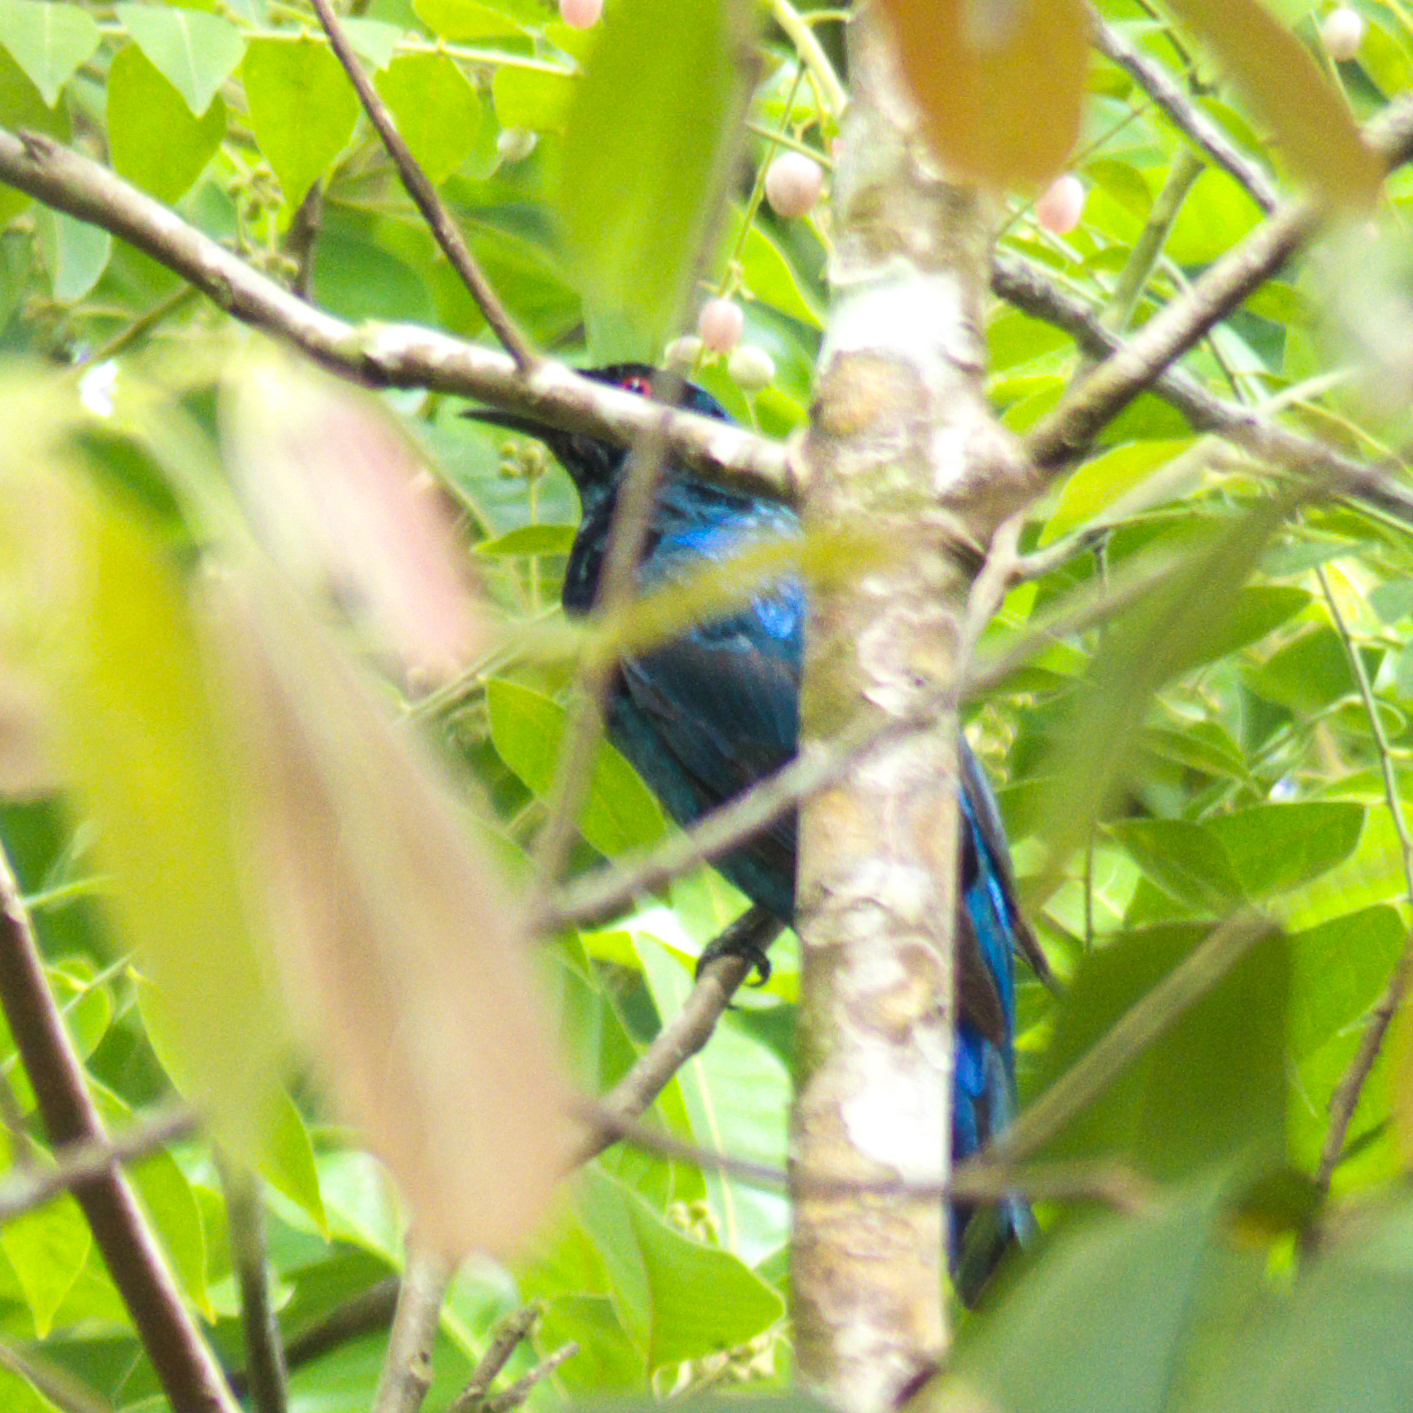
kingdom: Animalia
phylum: Chordata
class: Aves
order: Passeriformes
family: Irenidae
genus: Irena
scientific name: Irena puella
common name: Asian fairy-bluebird
